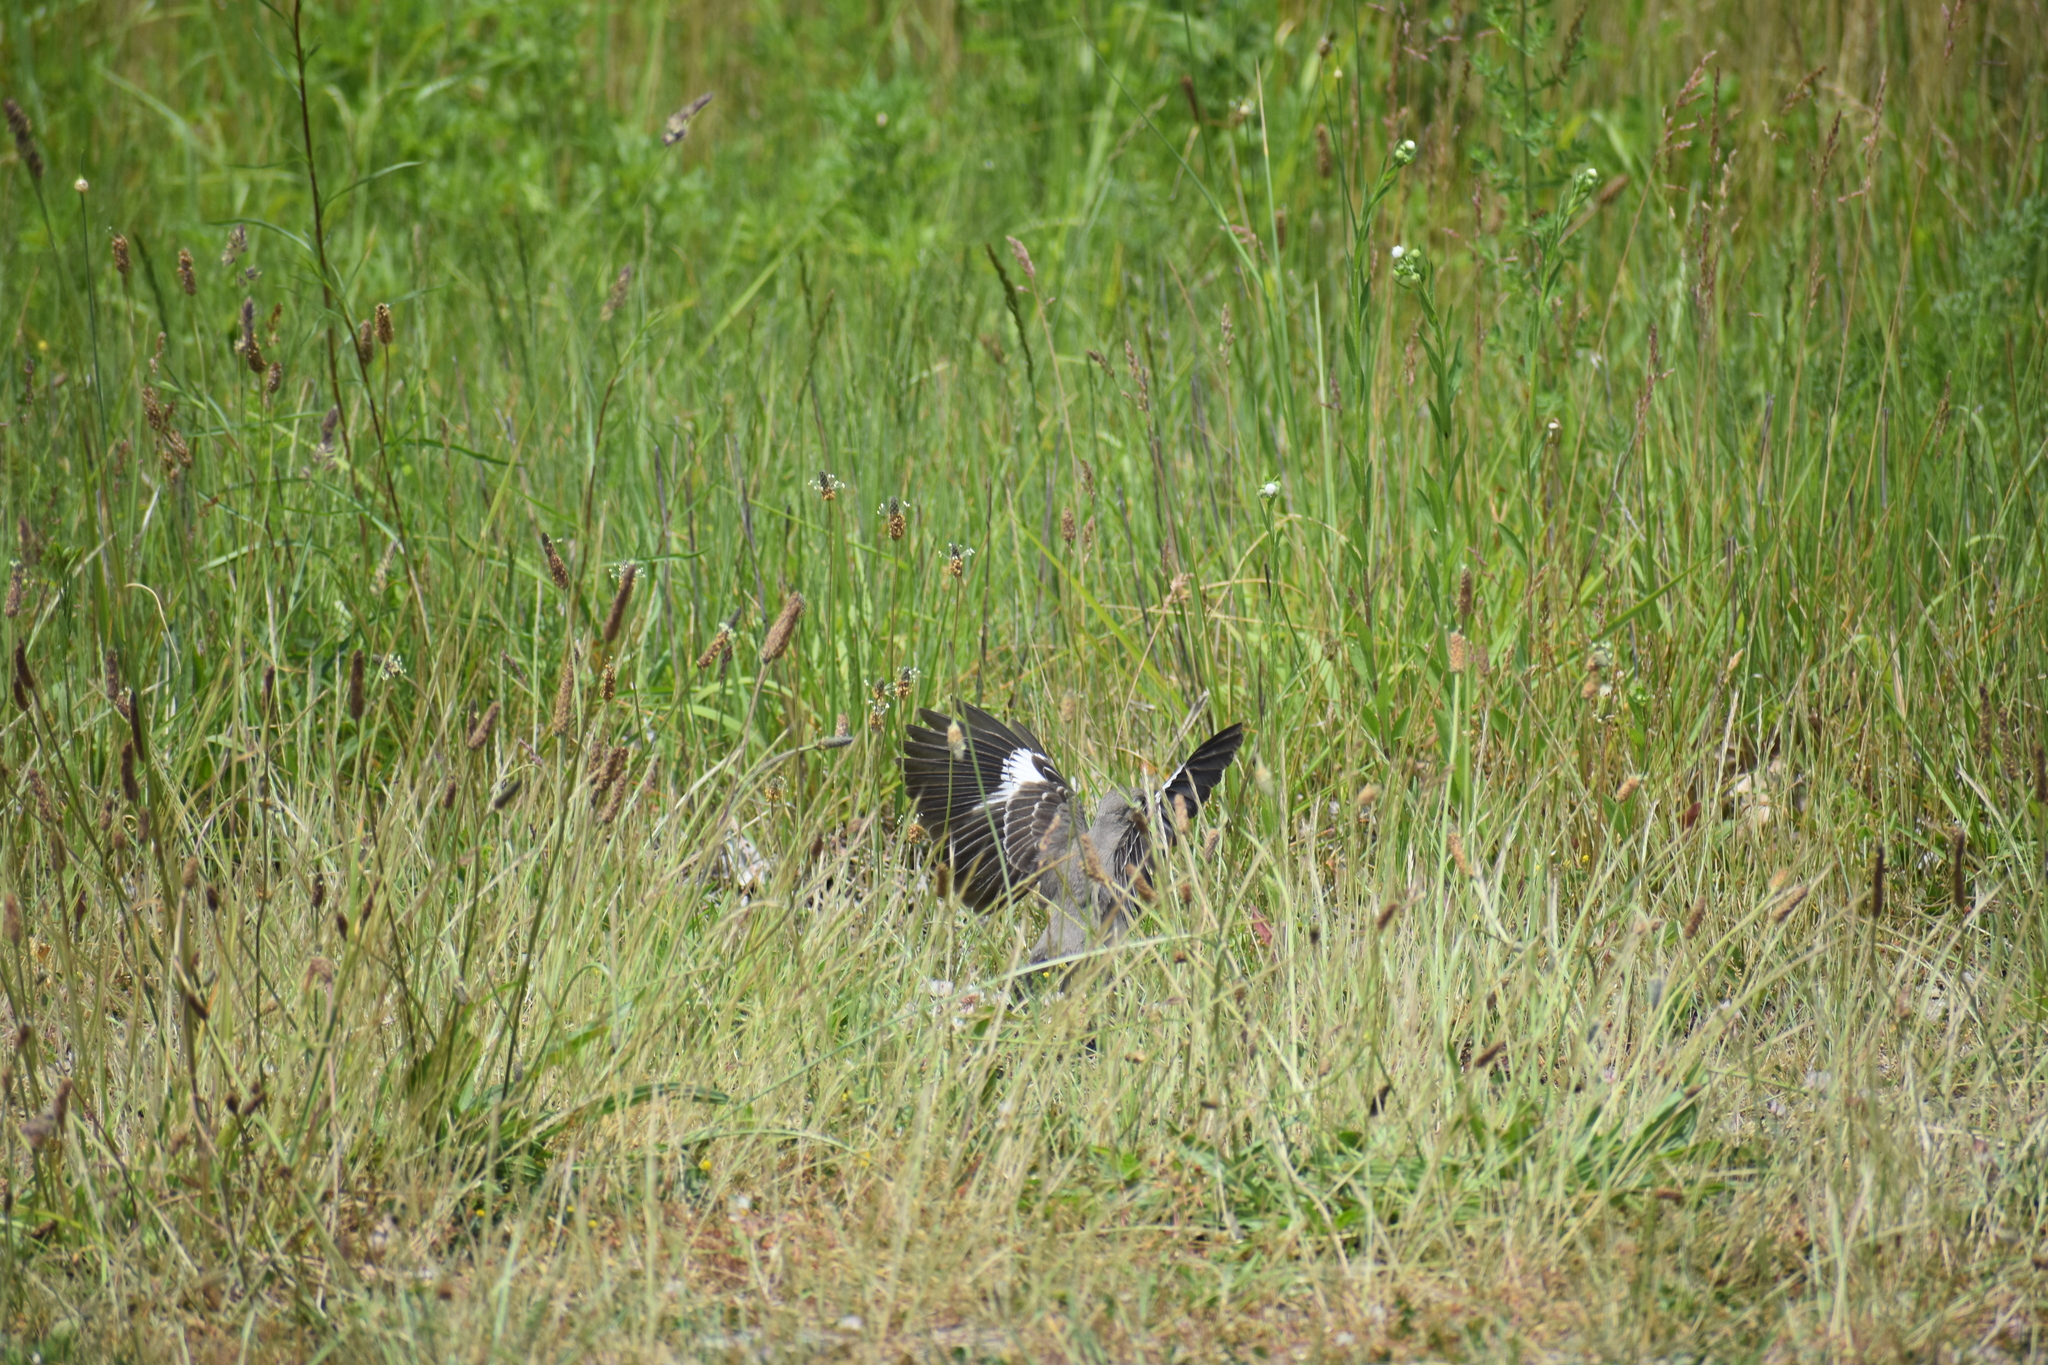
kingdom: Animalia
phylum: Chordata
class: Aves
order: Passeriformes
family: Mimidae
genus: Mimus
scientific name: Mimus polyglottos
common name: Northern mockingbird
